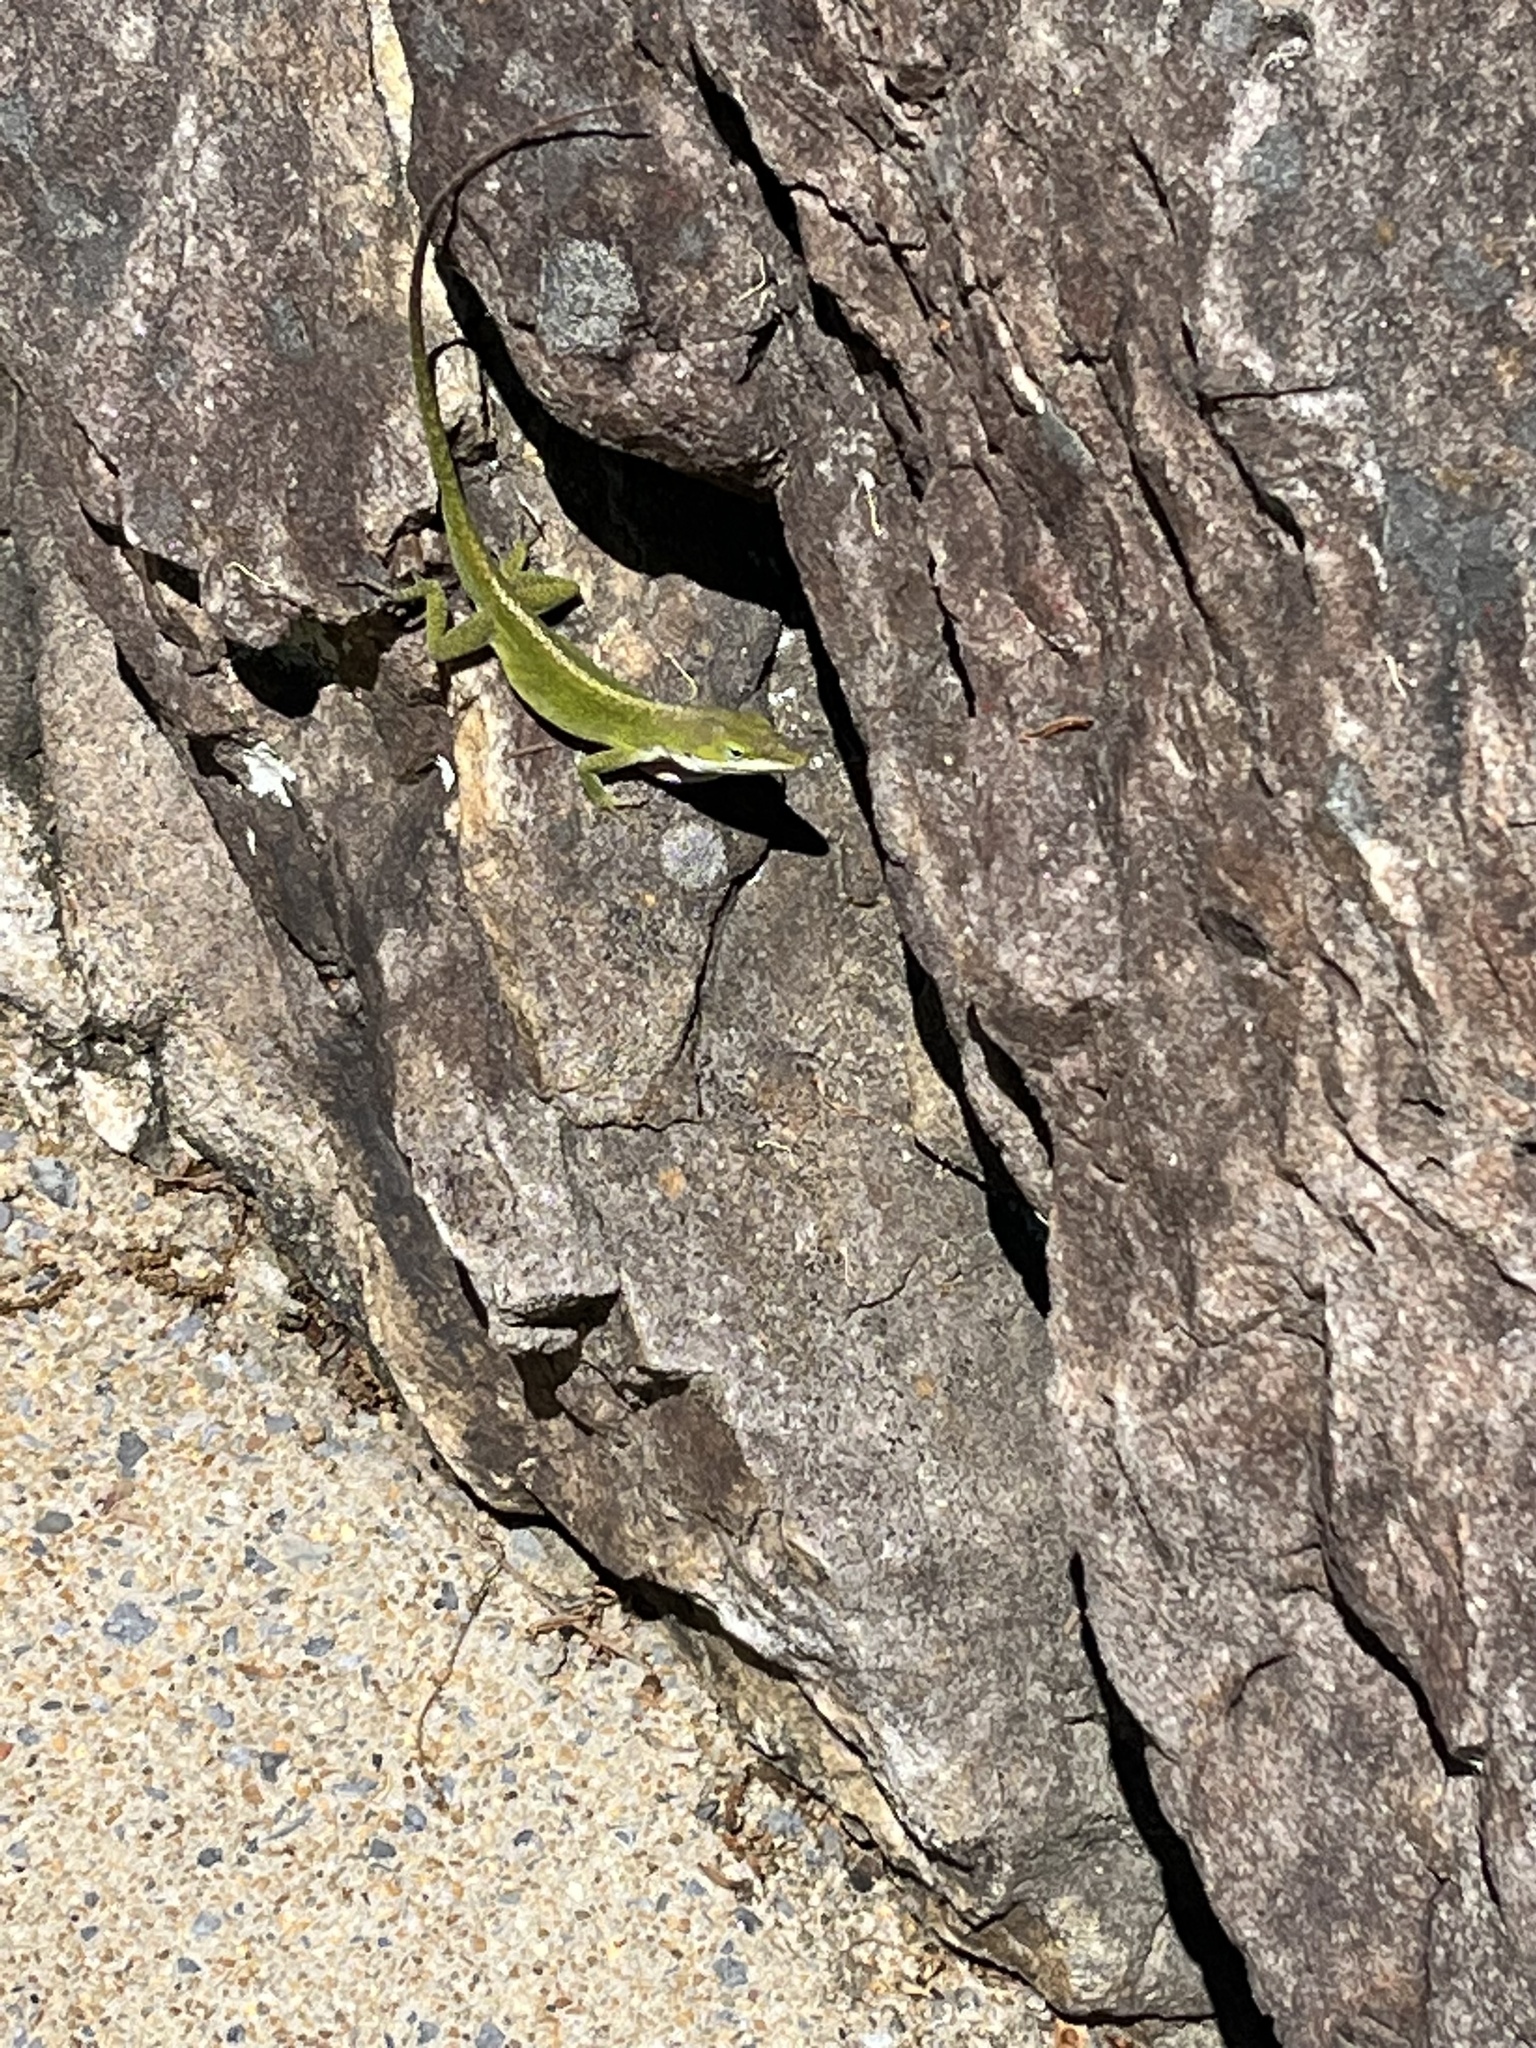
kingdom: Animalia
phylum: Chordata
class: Squamata
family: Dactyloidae
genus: Anolis
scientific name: Anolis carolinensis
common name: Green anole
